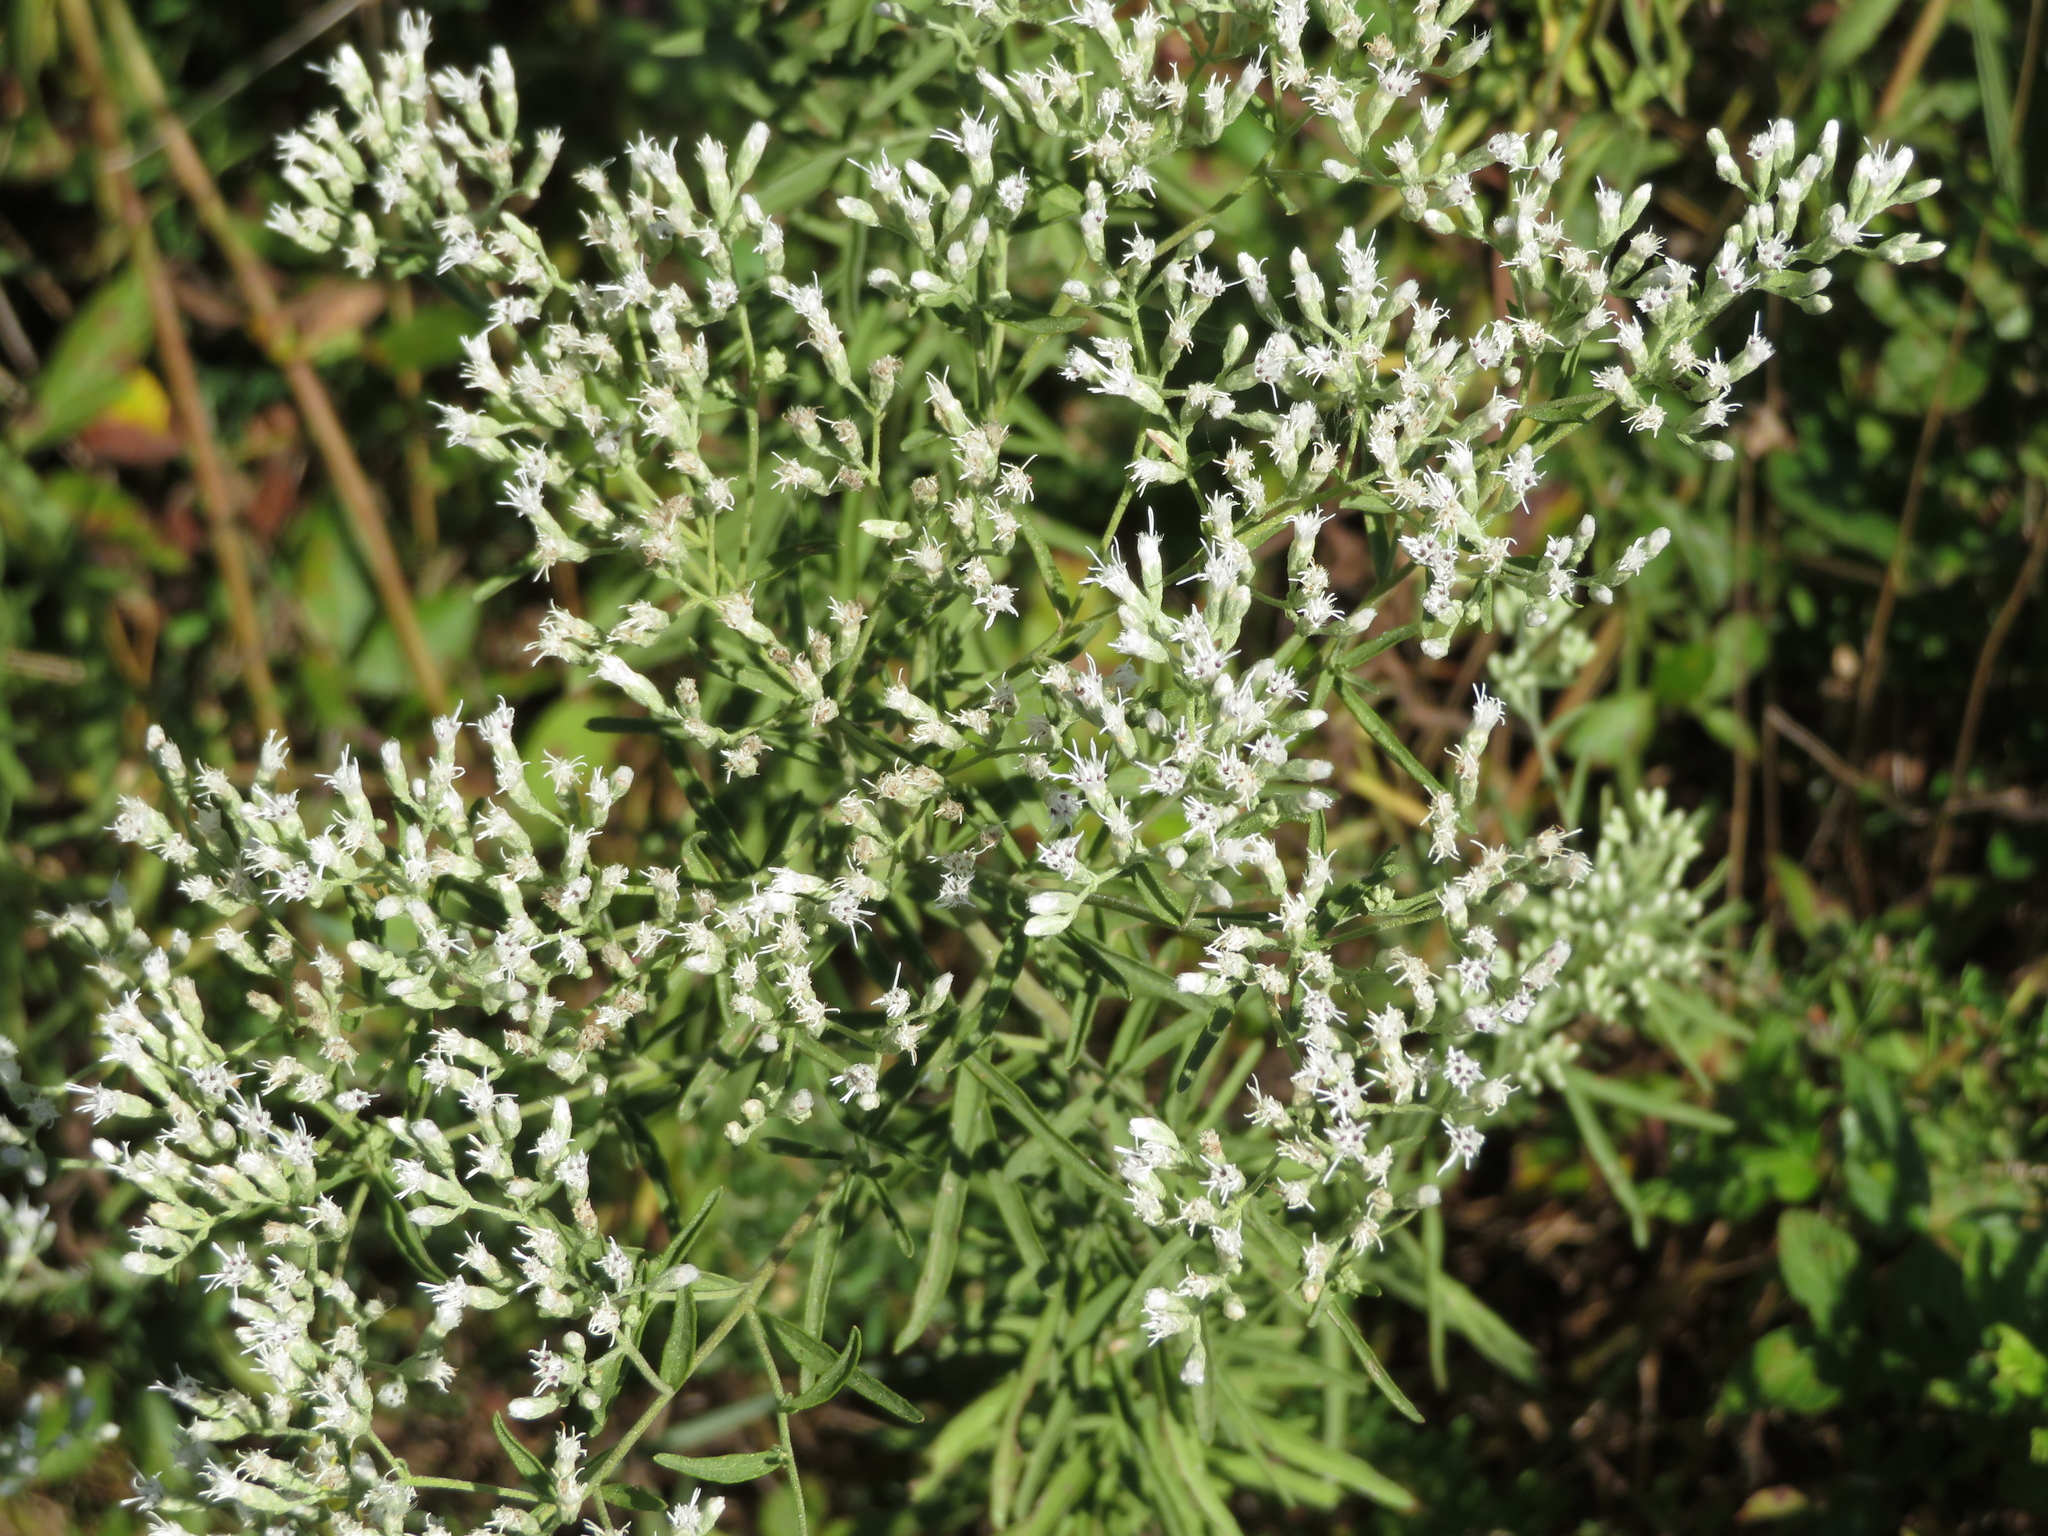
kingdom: Plantae
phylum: Tracheophyta
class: Magnoliopsida
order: Asterales
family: Asteraceae
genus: Eupatorium
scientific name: Eupatorium hyssopifolium
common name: Hyssop-leaf thoroughwort
